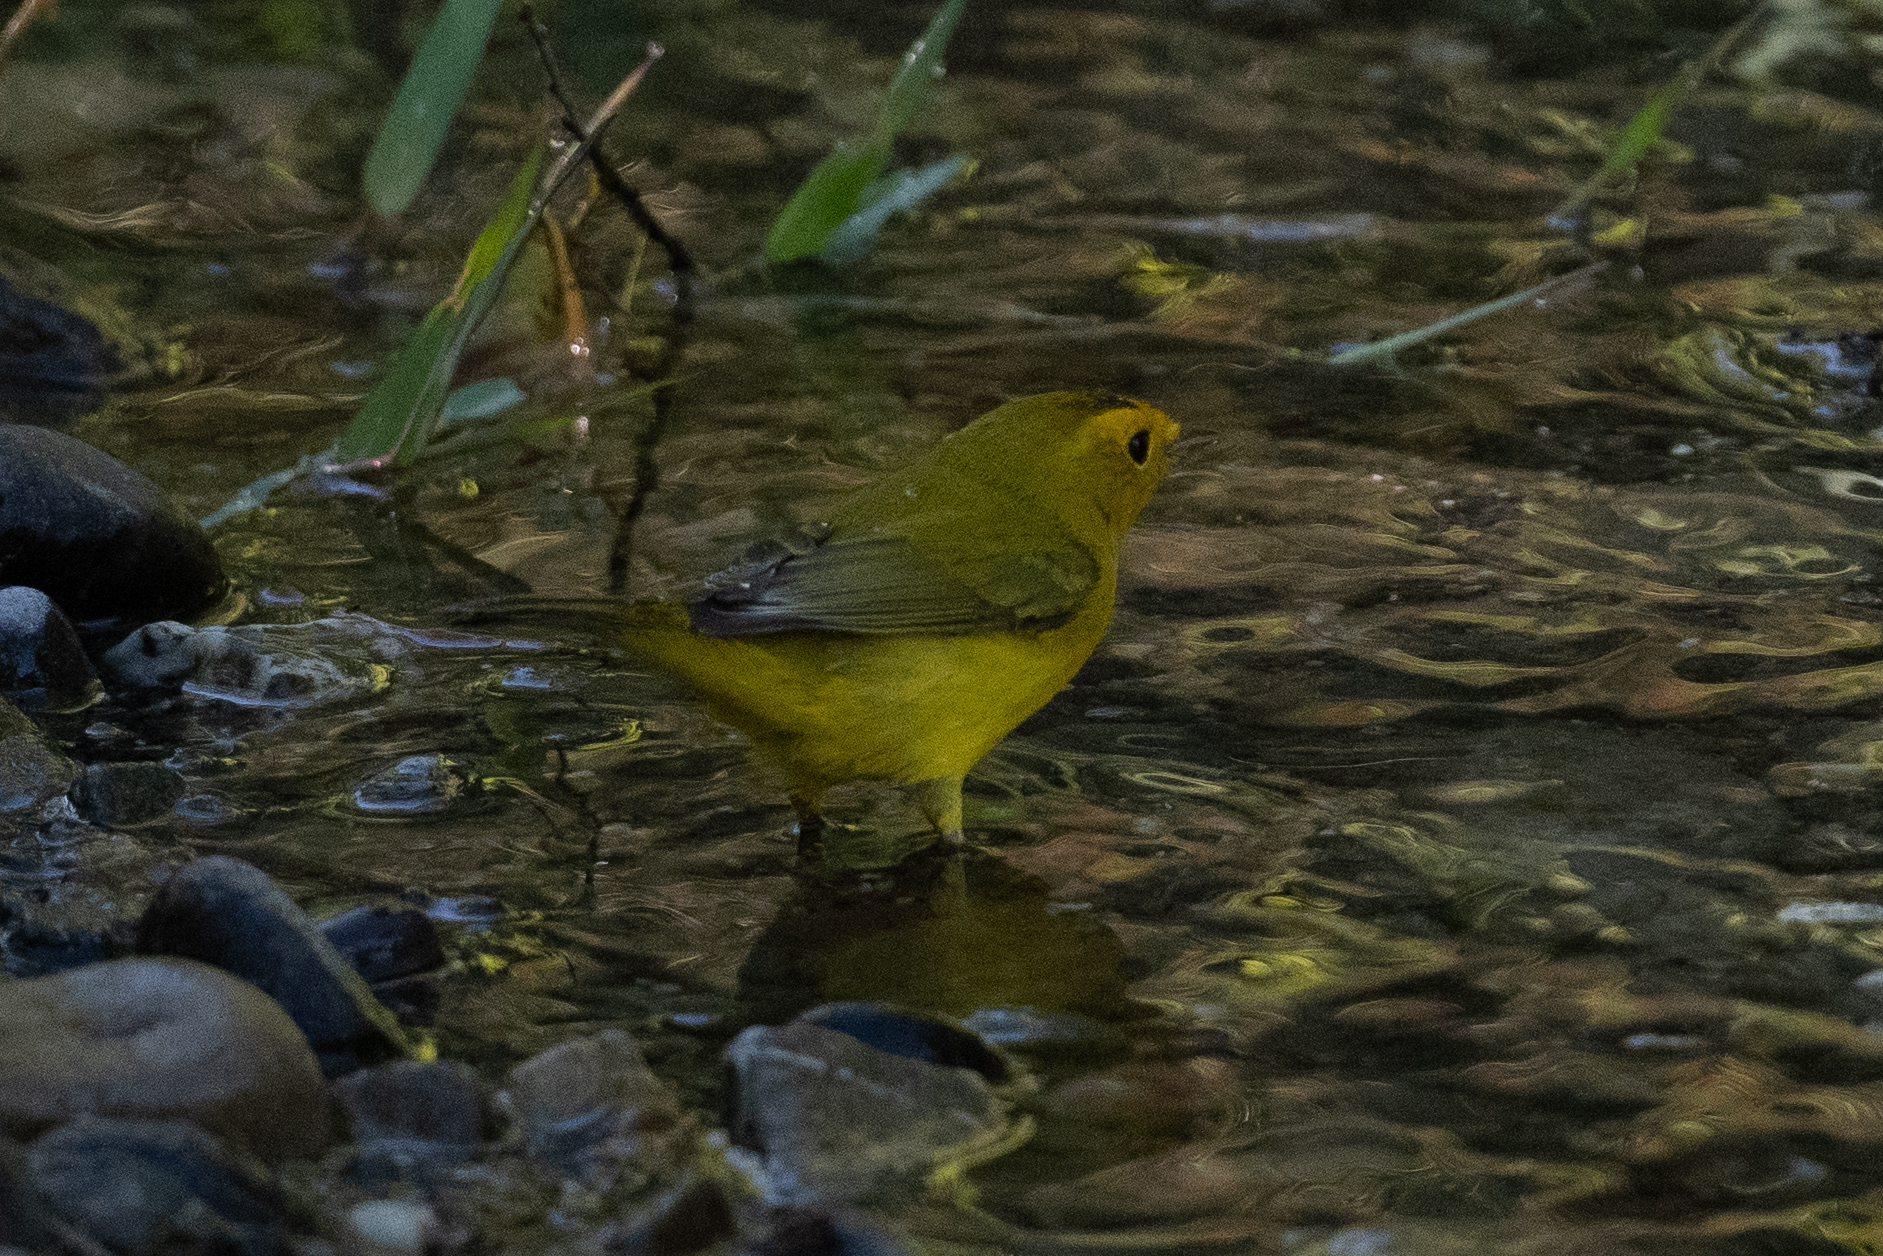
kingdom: Animalia
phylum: Chordata
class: Aves
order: Passeriformes
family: Parulidae
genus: Cardellina
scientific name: Cardellina pusilla
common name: Wilson's warbler
